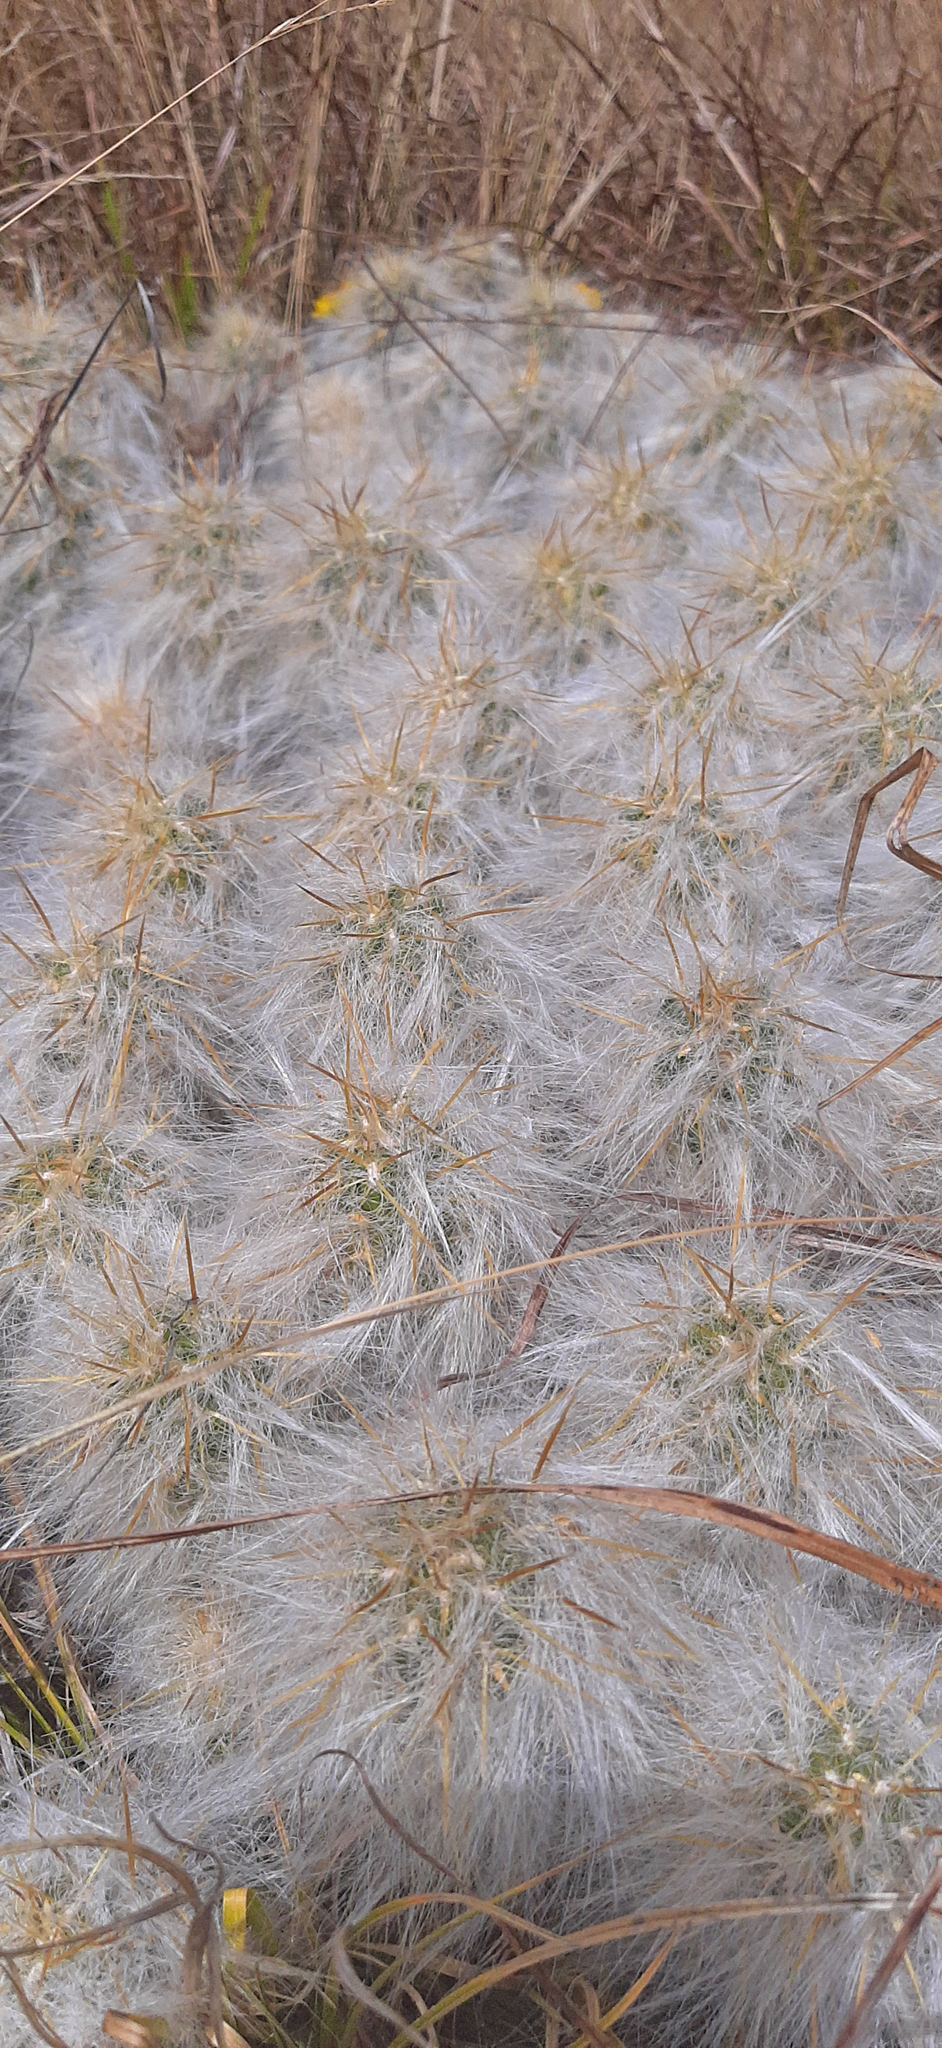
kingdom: Plantae
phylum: Tracheophyta
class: Magnoliopsida
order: Caryophyllales
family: Cactaceae
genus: Austrocylindropuntia
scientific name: Austrocylindropuntia floccosa
